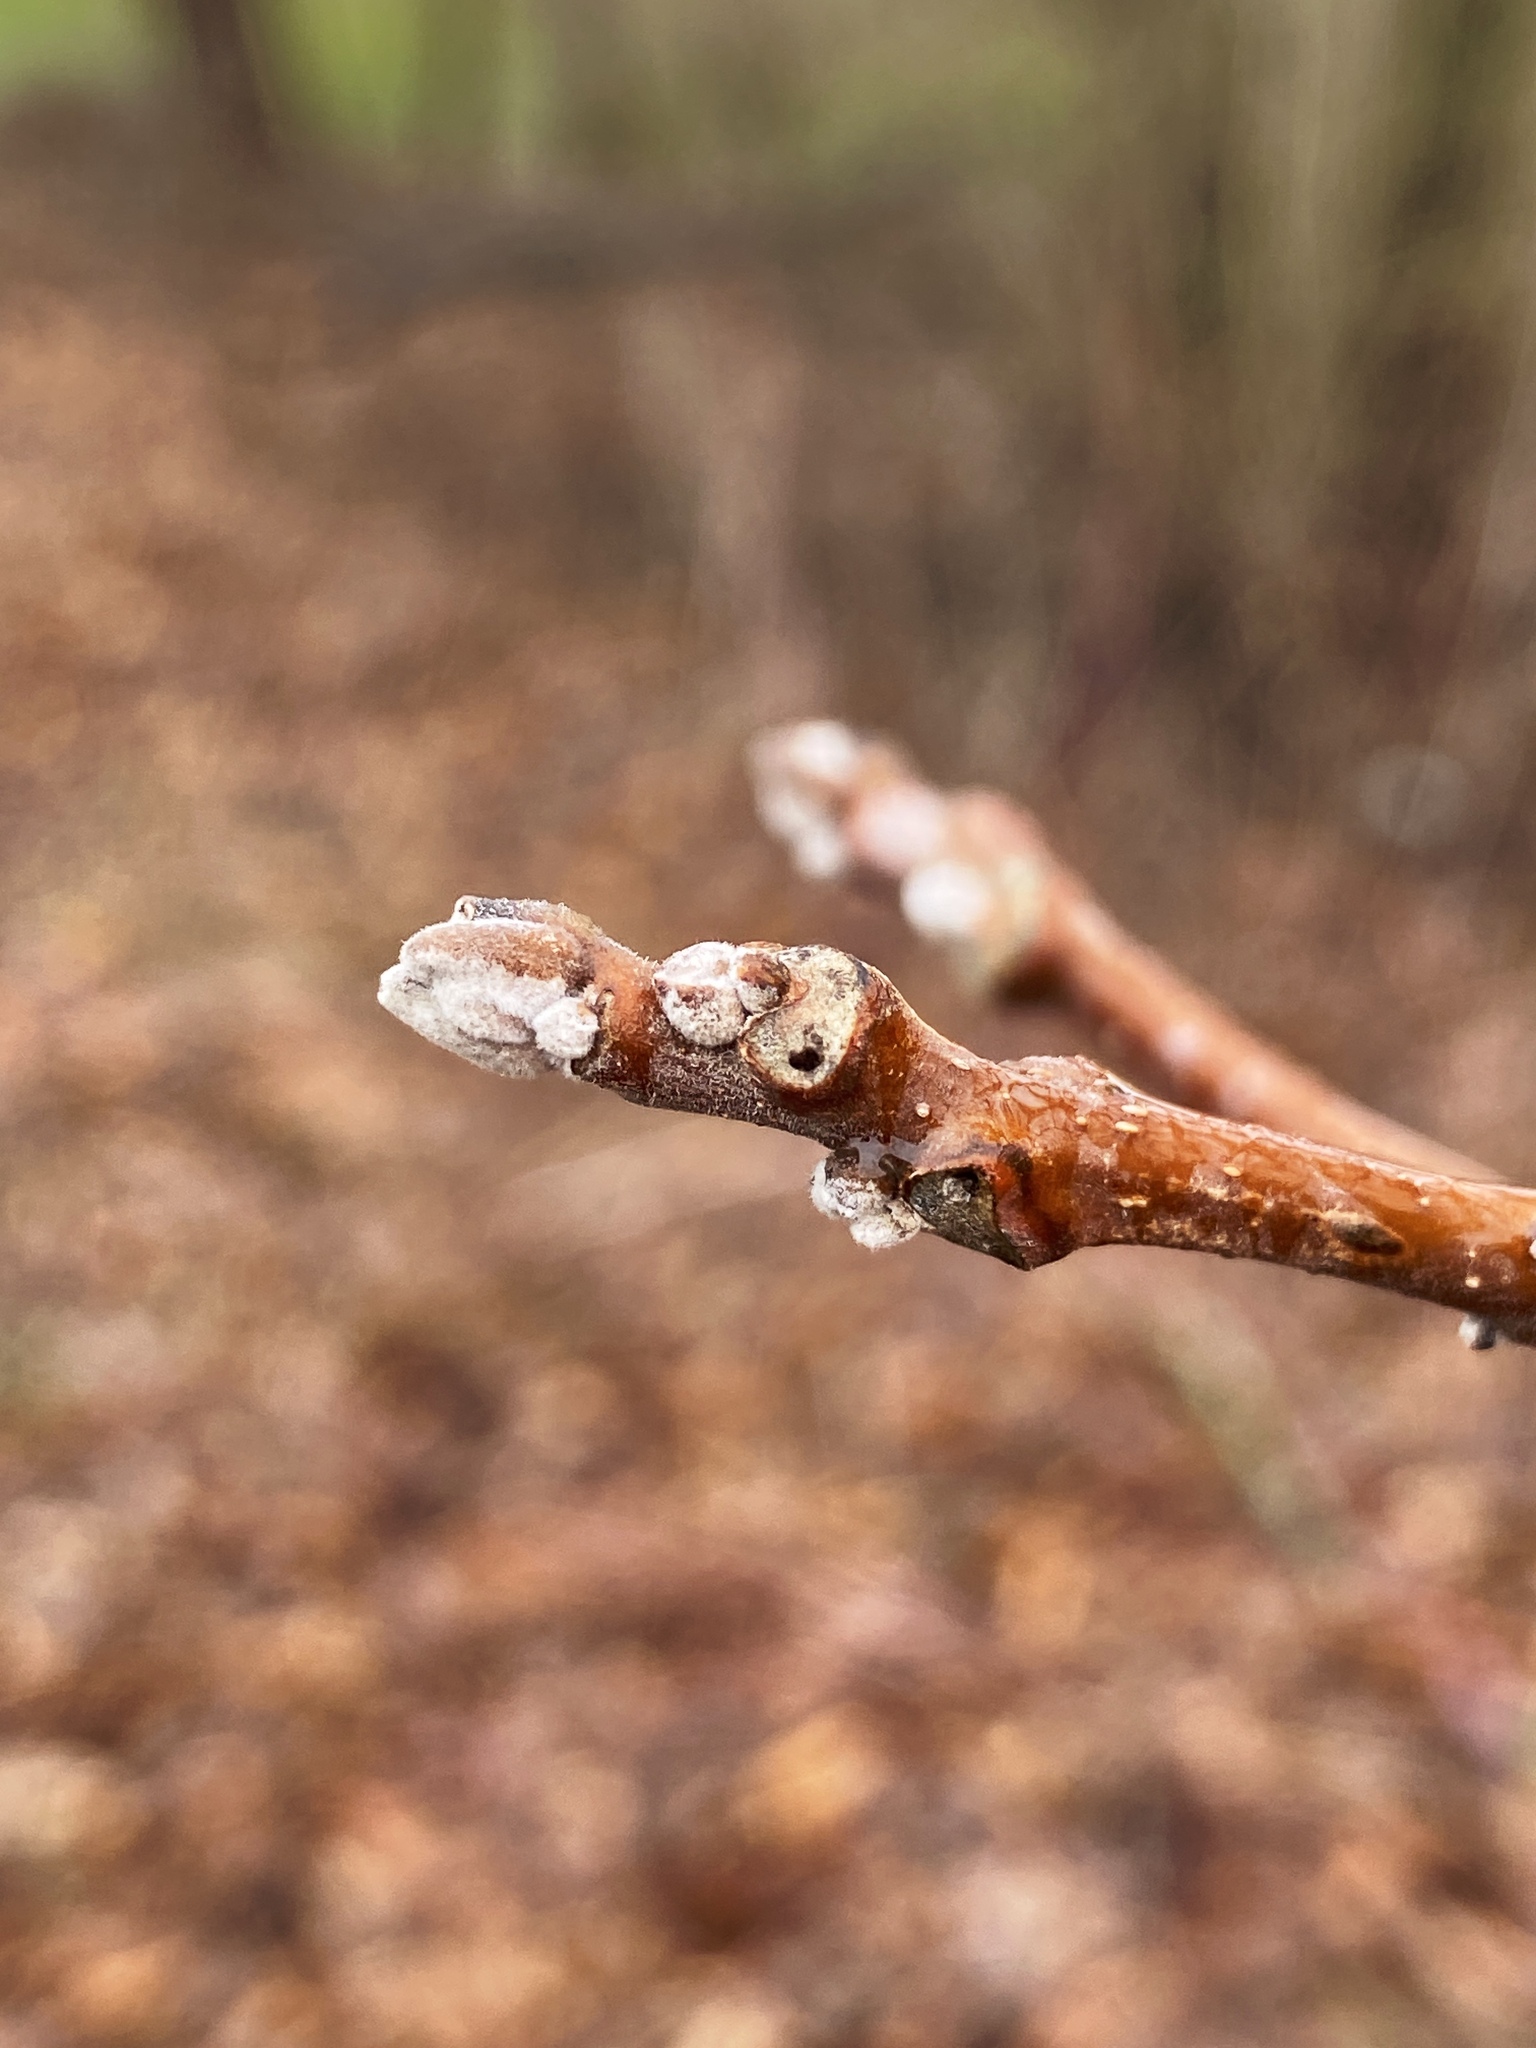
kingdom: Plantae
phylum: Tracheophyta
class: Magnoliopsida
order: Fagales
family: Juglandaceae
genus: Juglans
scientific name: Juglans nigra
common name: Black walnut
